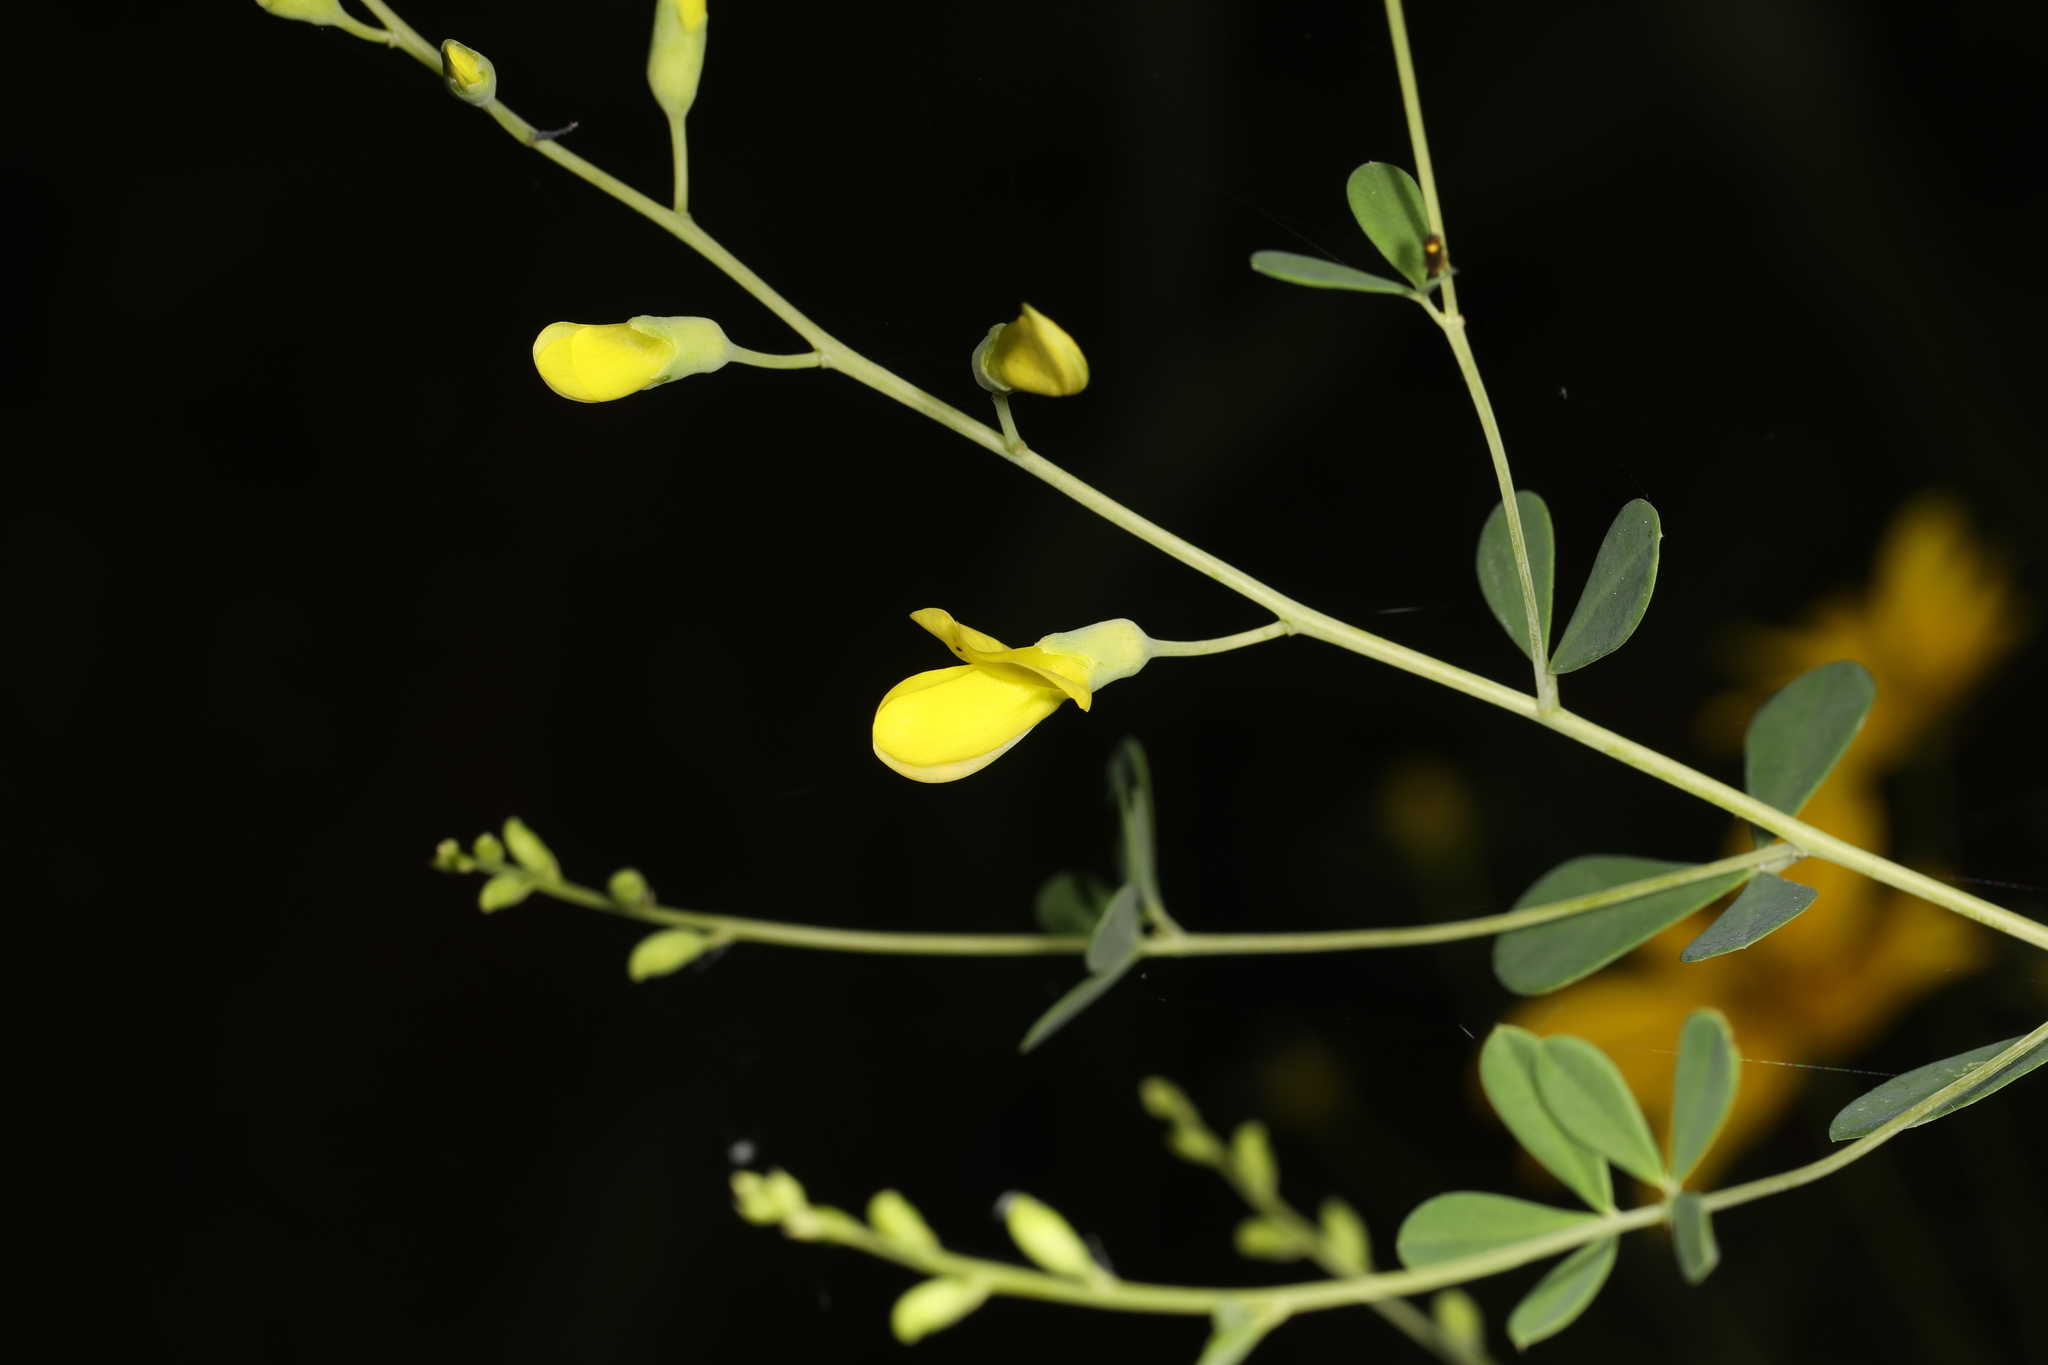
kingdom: Plantae
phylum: Tracheophyta
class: Magnoliopsida
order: Fabales
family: Fabaceae
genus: Baptisia
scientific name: Baptisia tinctoria
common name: Wild indigo
